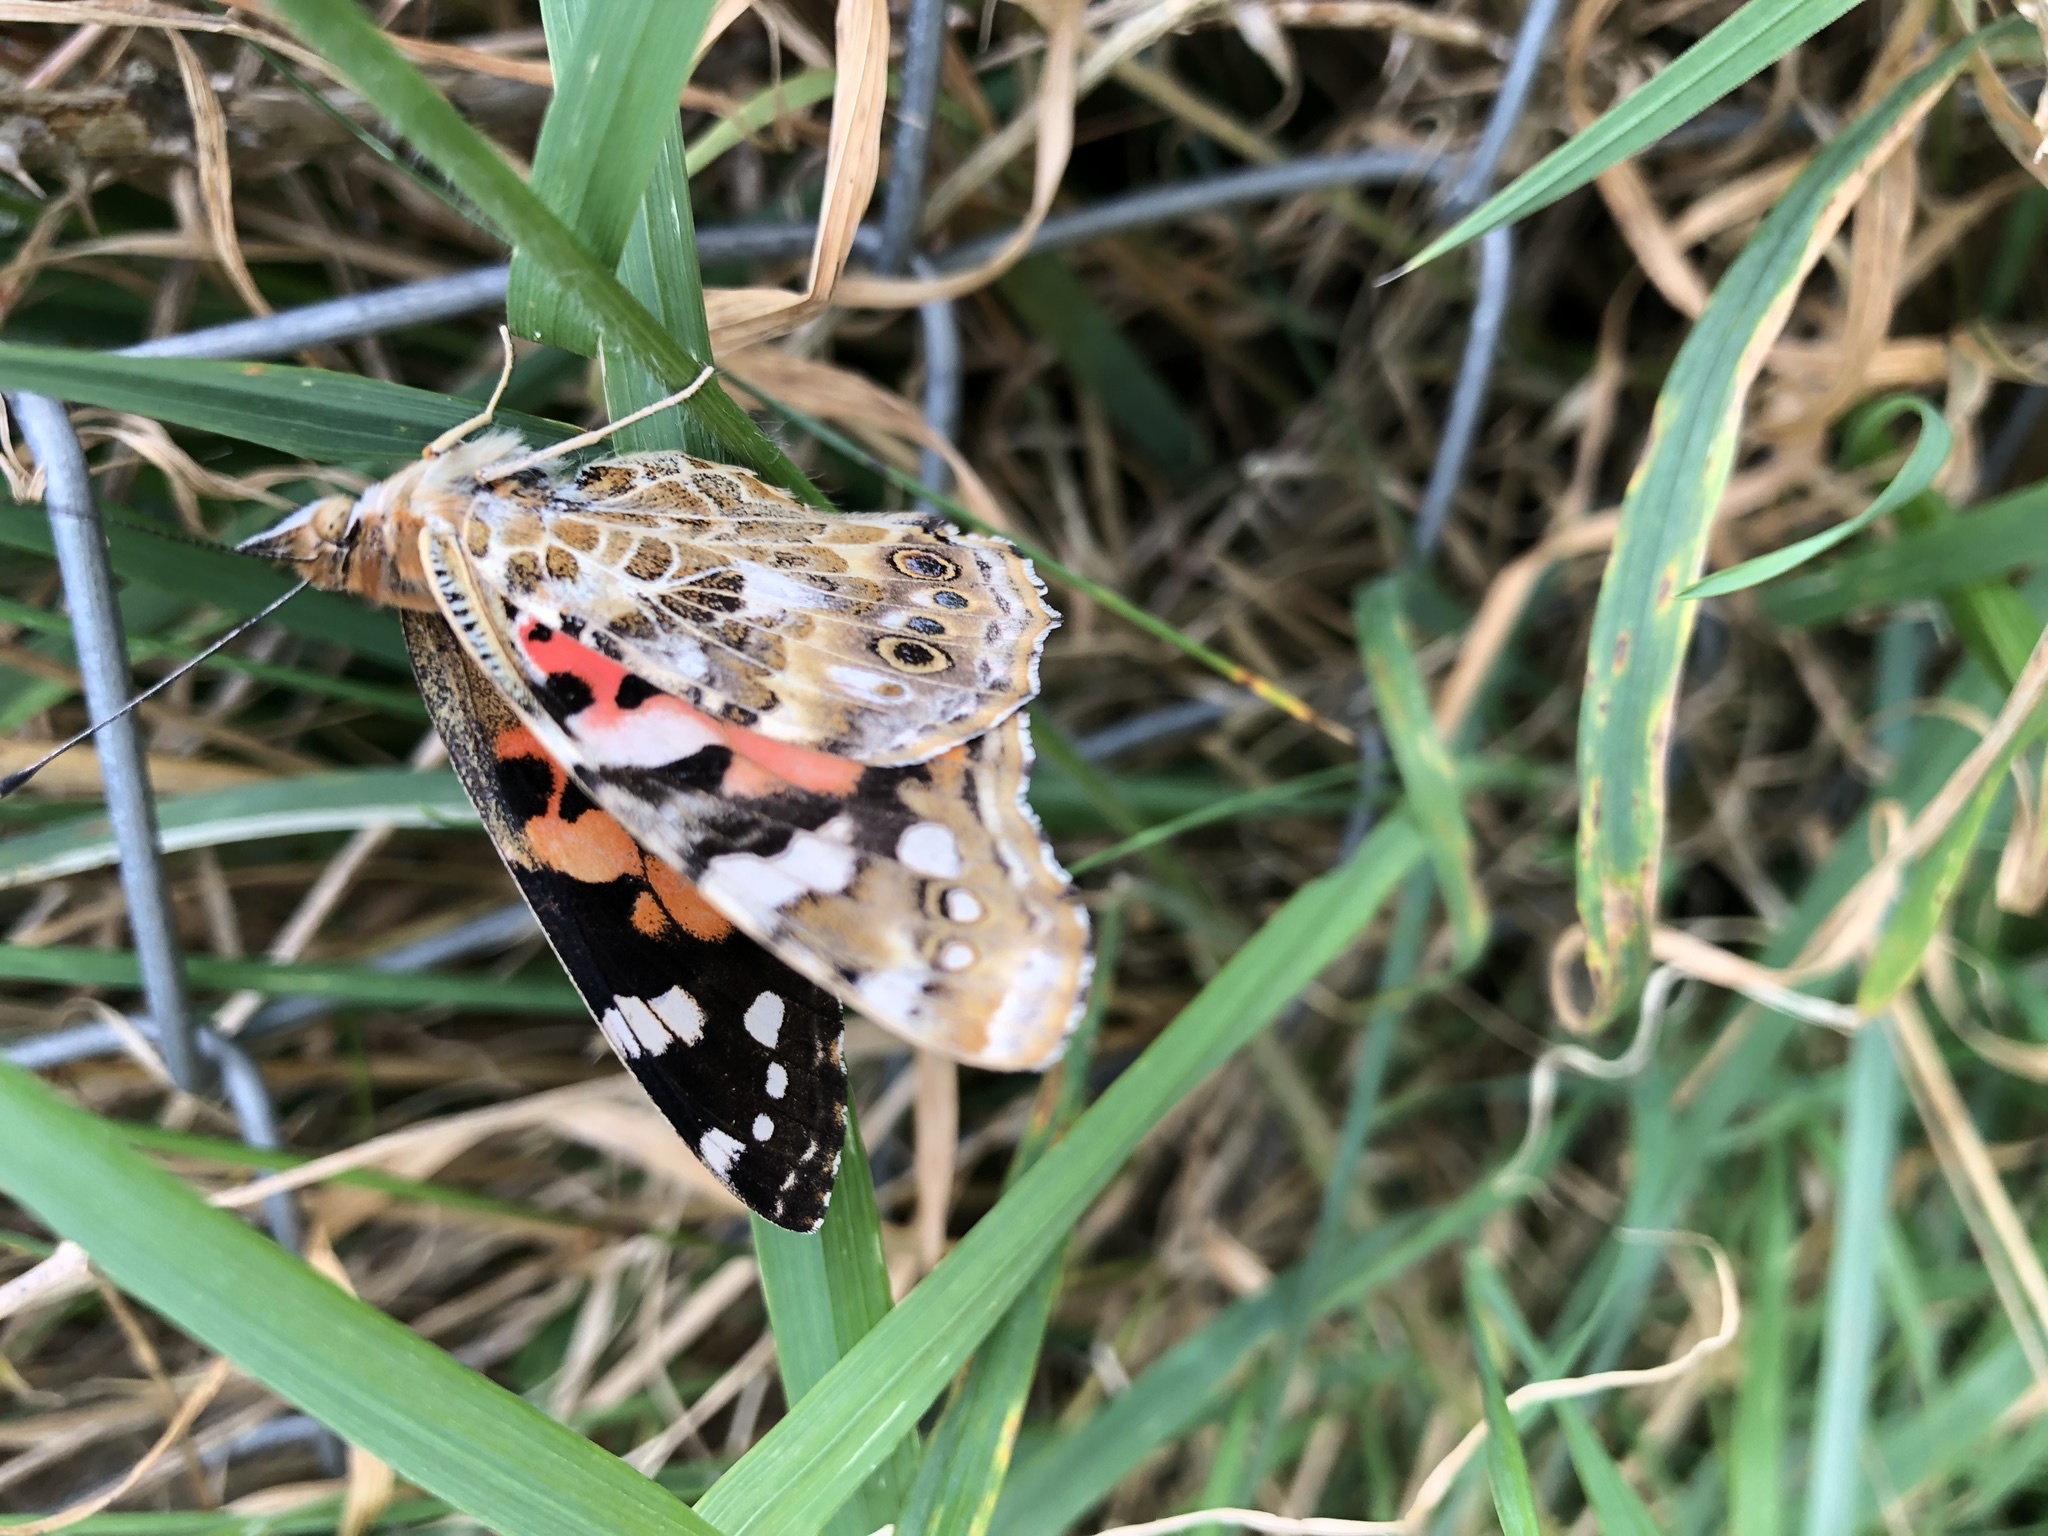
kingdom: Animalia
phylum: Arthropoda
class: Insecta
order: Lepidoptera
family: Nymphalidae
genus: Vanessa
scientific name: Vanessa cardui
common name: Painted lady
